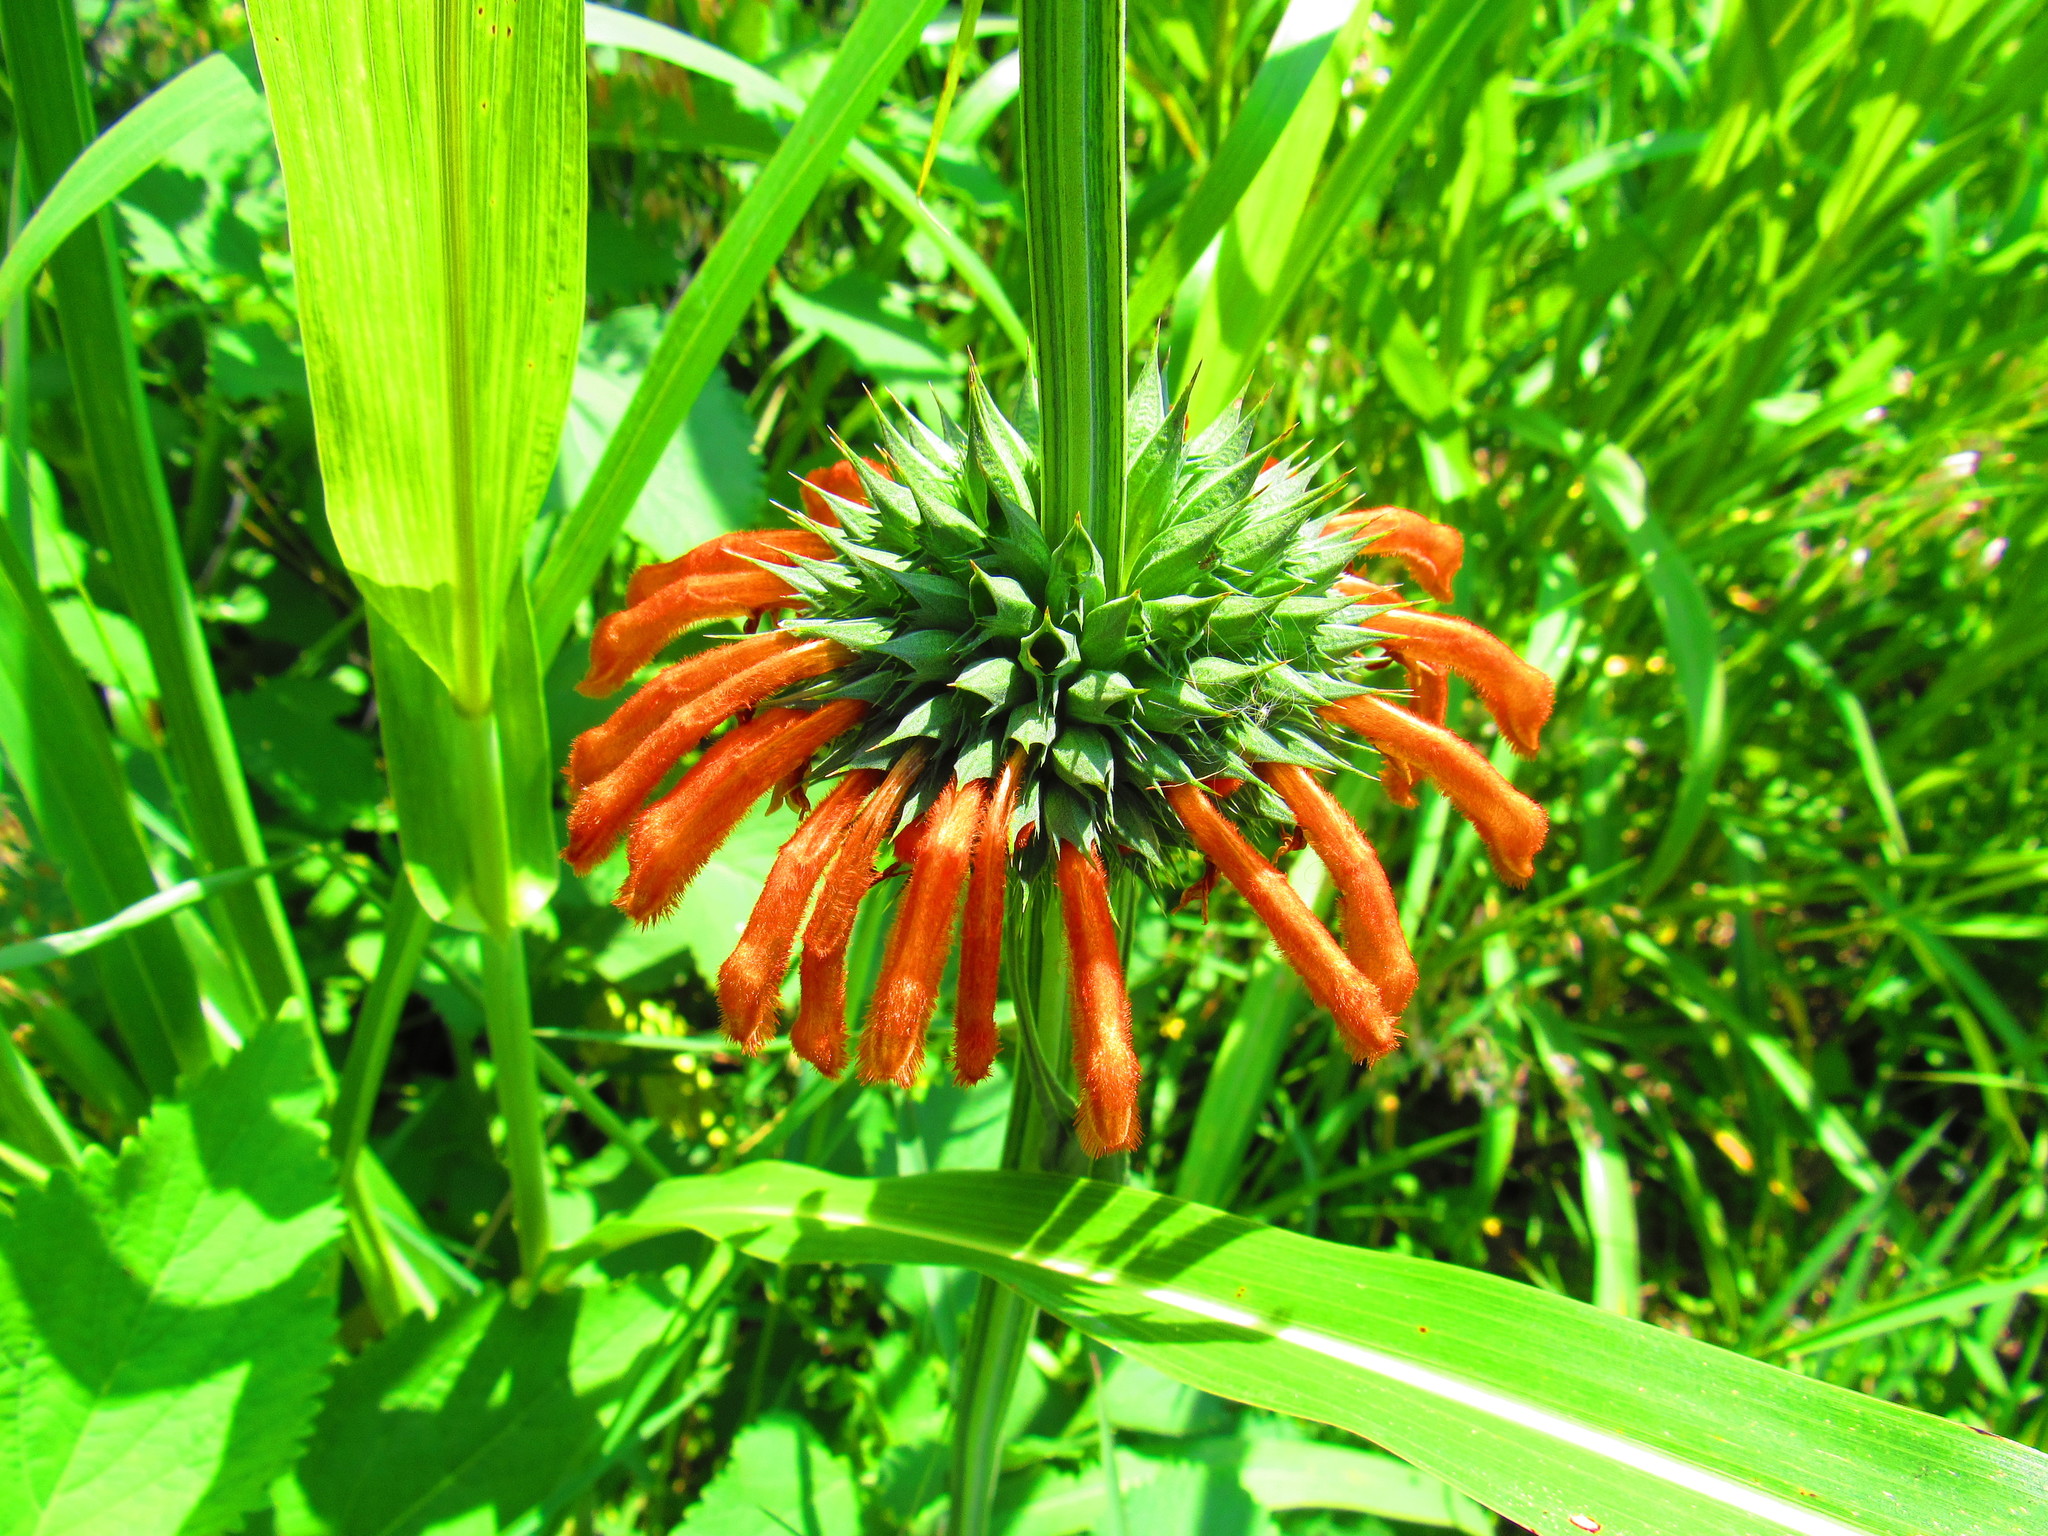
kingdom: Plantae
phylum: Tracheophyta
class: Magnoliopsida
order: Lamiales
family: Lamiaceae
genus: Leonotis
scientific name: Leonotis nepetifolia
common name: Christmas candlestick
